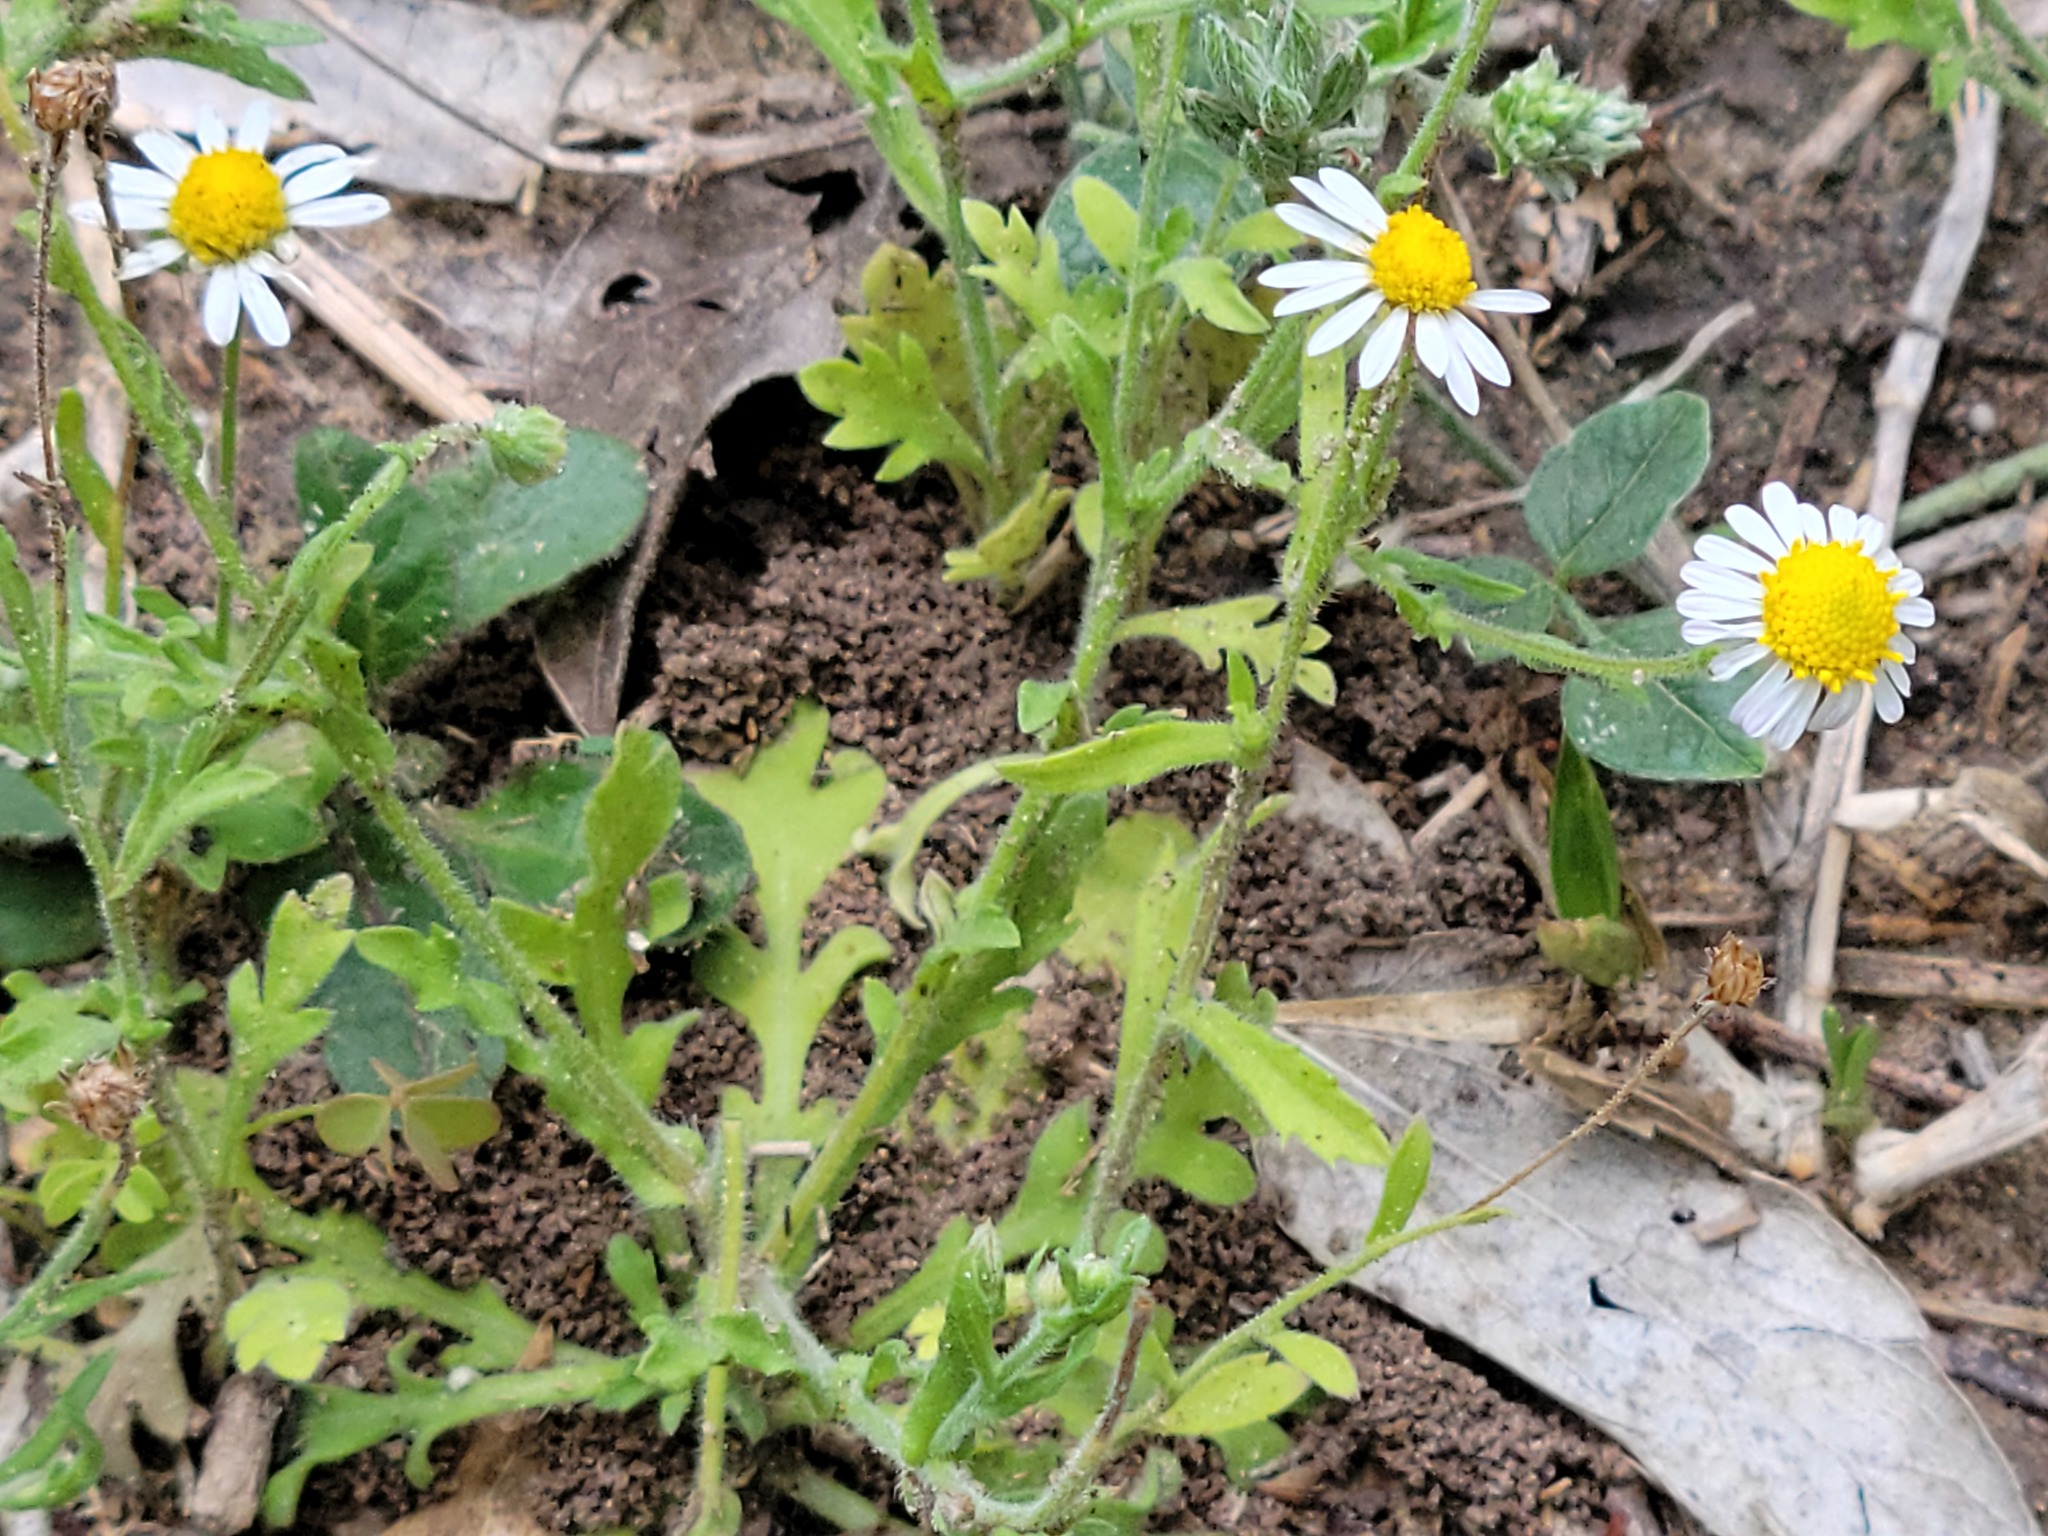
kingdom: Plantae
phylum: Tracheophyta
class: Magnoliopsida
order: Asterales
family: Asteraceae
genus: Aphanostephus
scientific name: Aphanostephus ramosissimus
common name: Plains lazy daisy
